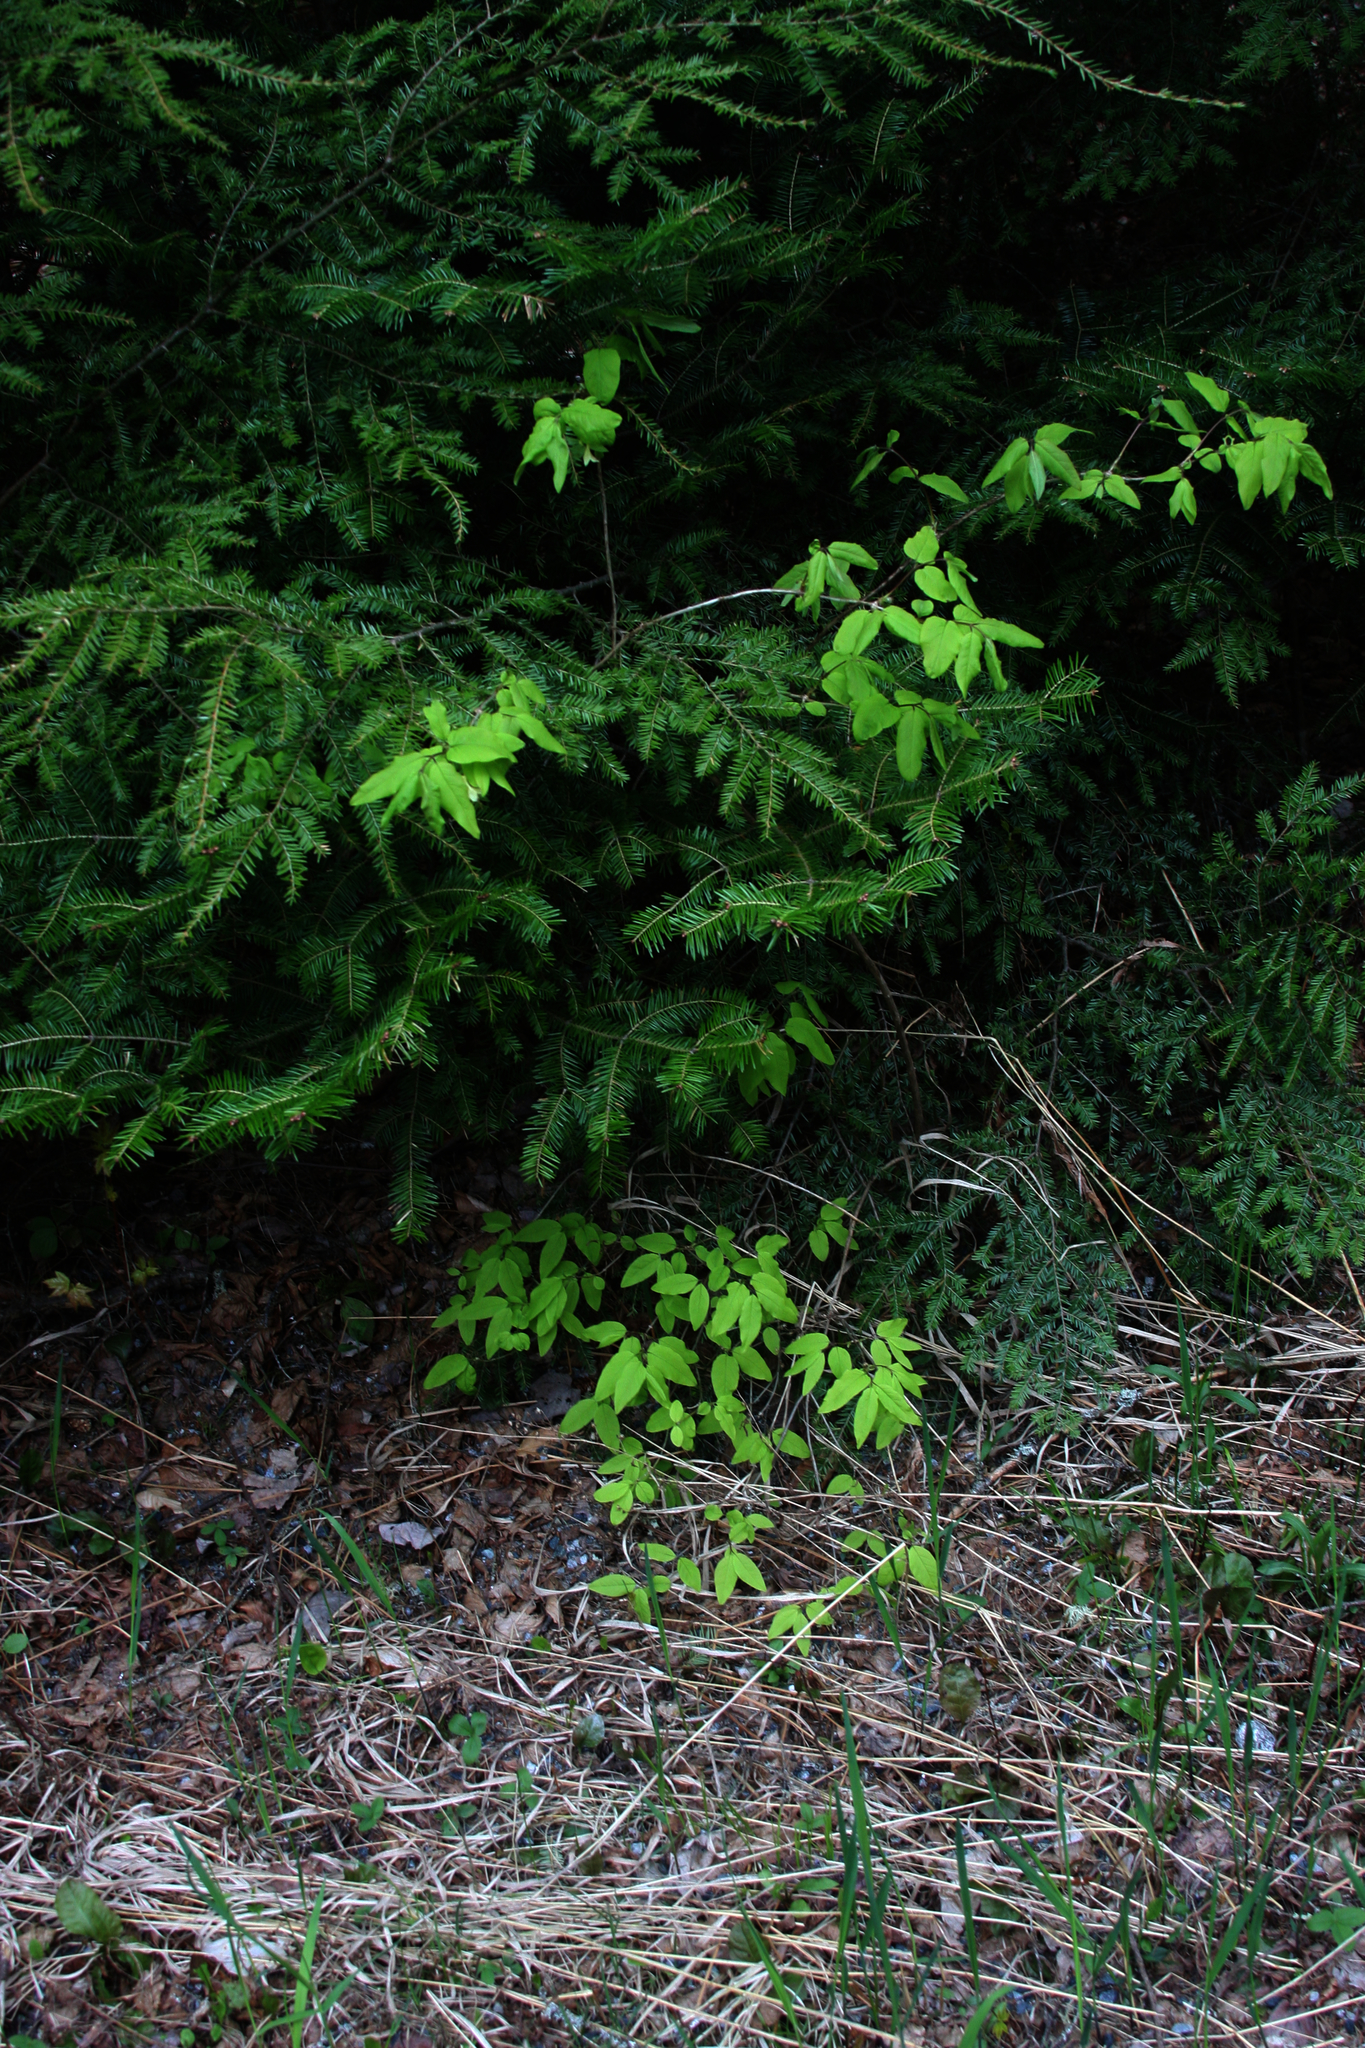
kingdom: Plantae
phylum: Tracheophyta
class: Magnoliopsida
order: Dipsacales
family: Caprifoliaceae
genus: Lonicera
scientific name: Lonicera canadensis
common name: American fly-honeysuckle
